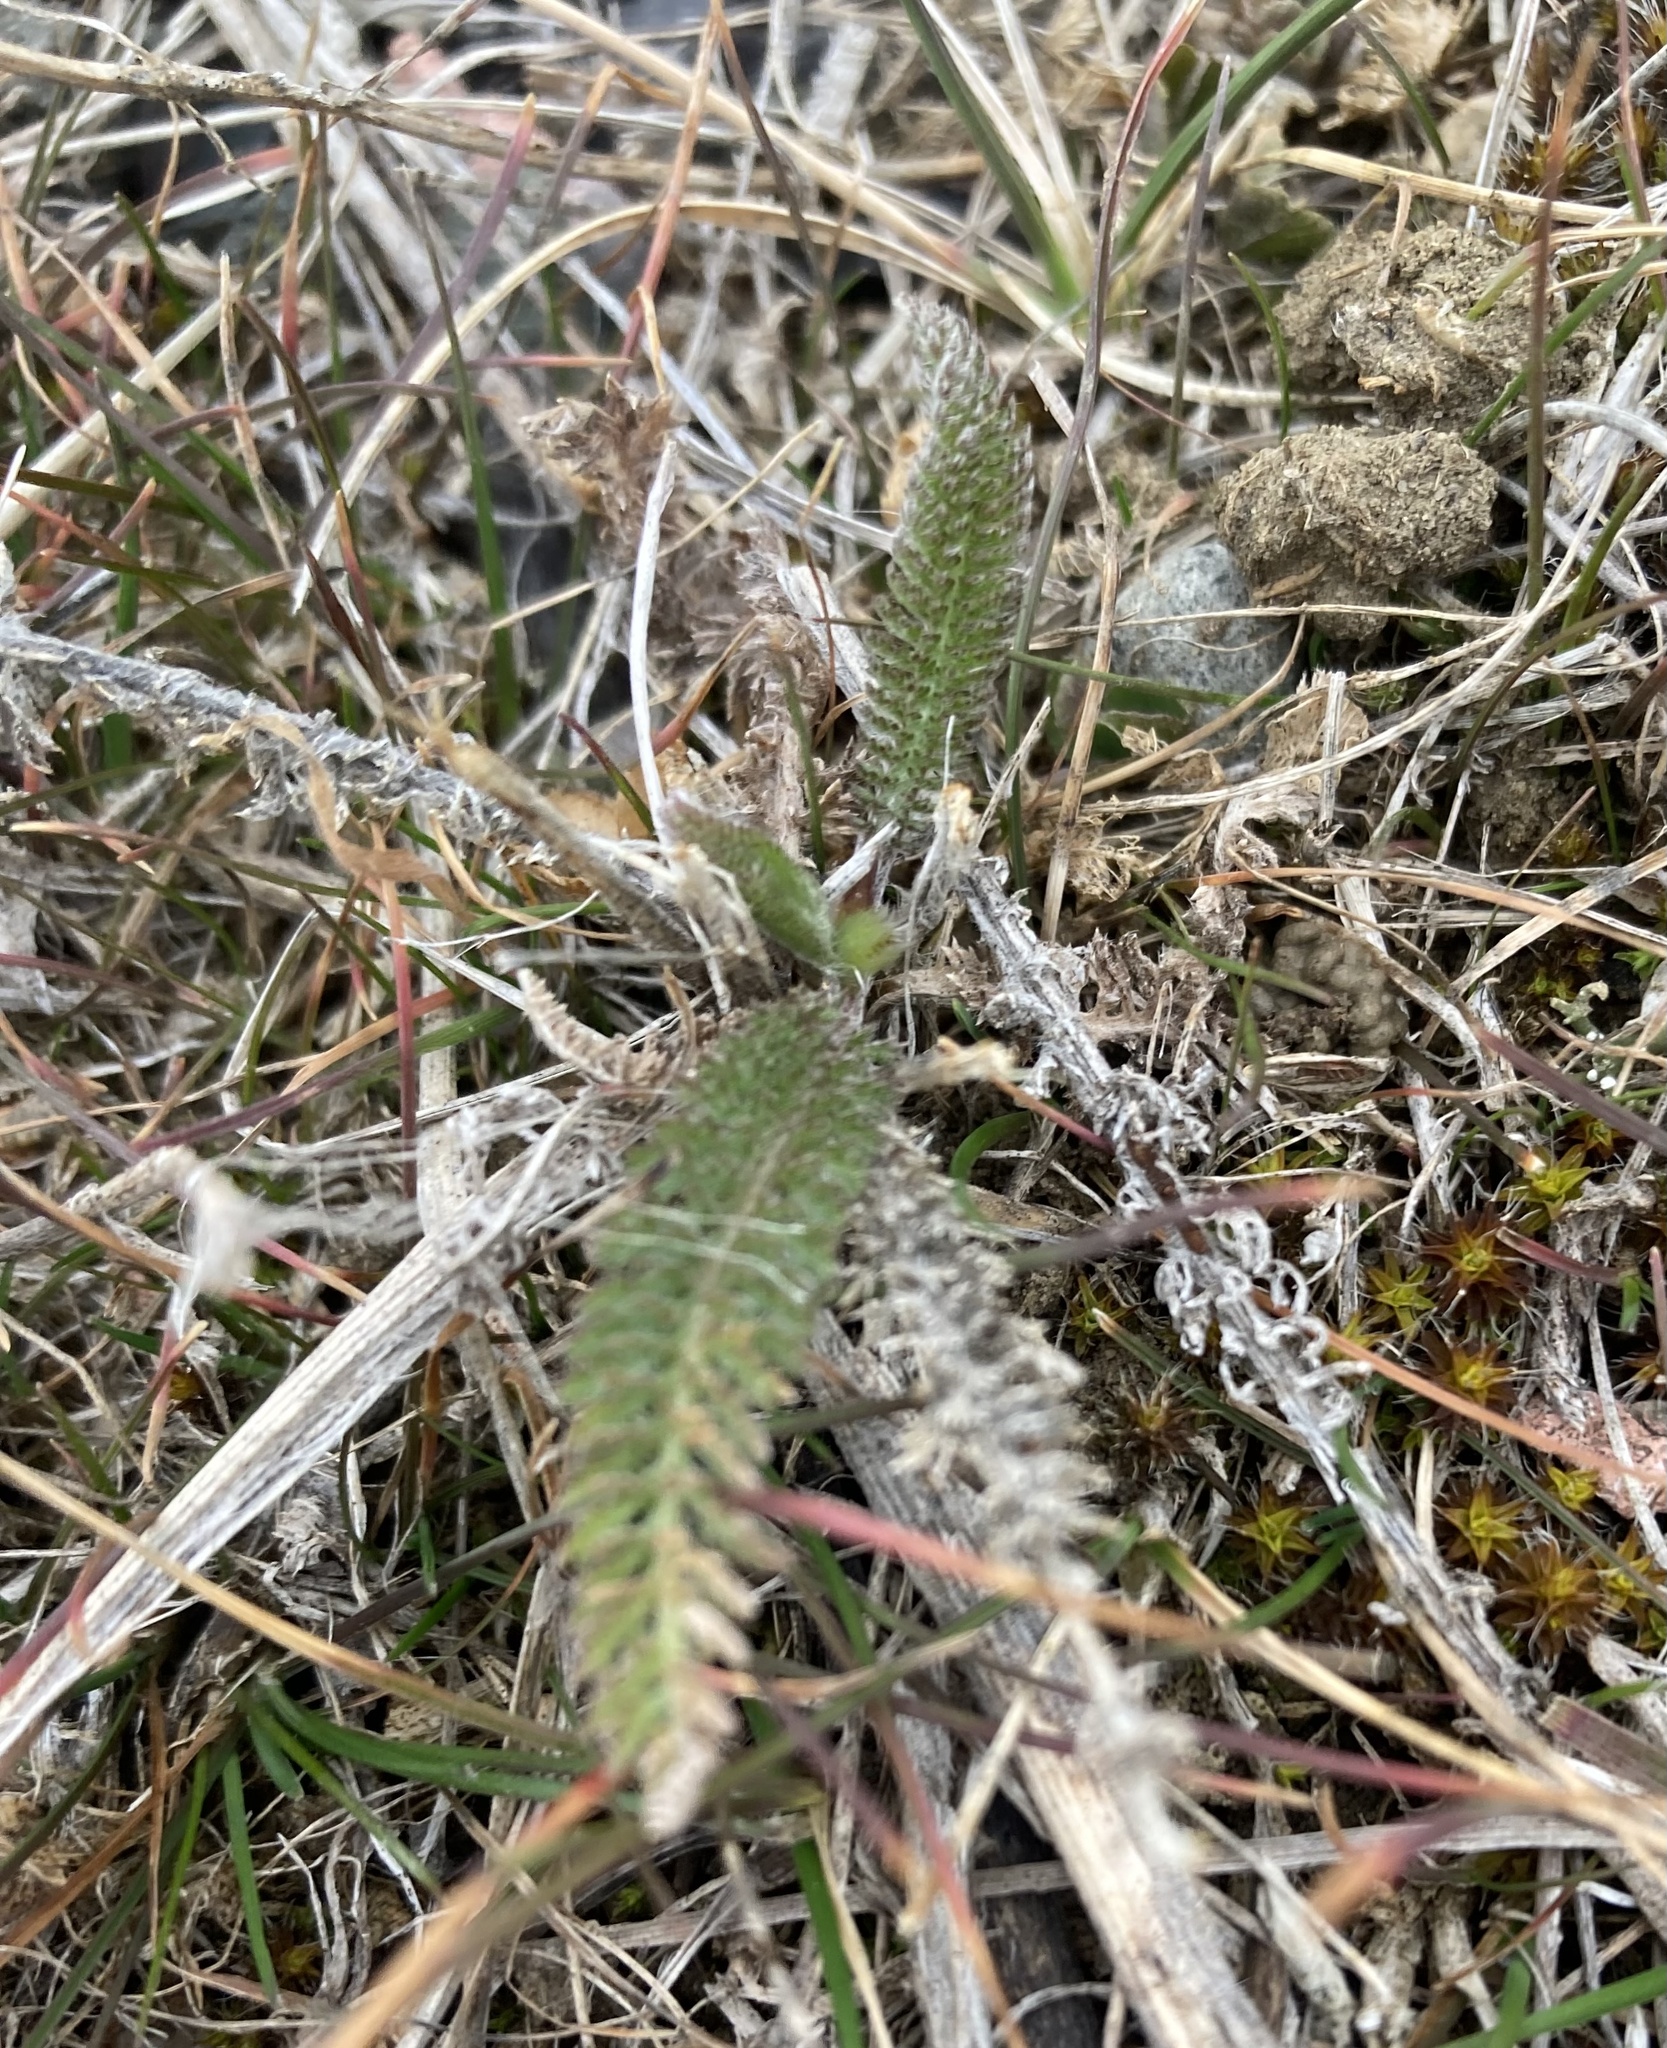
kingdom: Plantae
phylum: Tracheophyta
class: Magnoliopsida
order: Asterales
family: Asteraceae
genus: Achillea
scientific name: Achillea millefolium
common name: Yarrow
